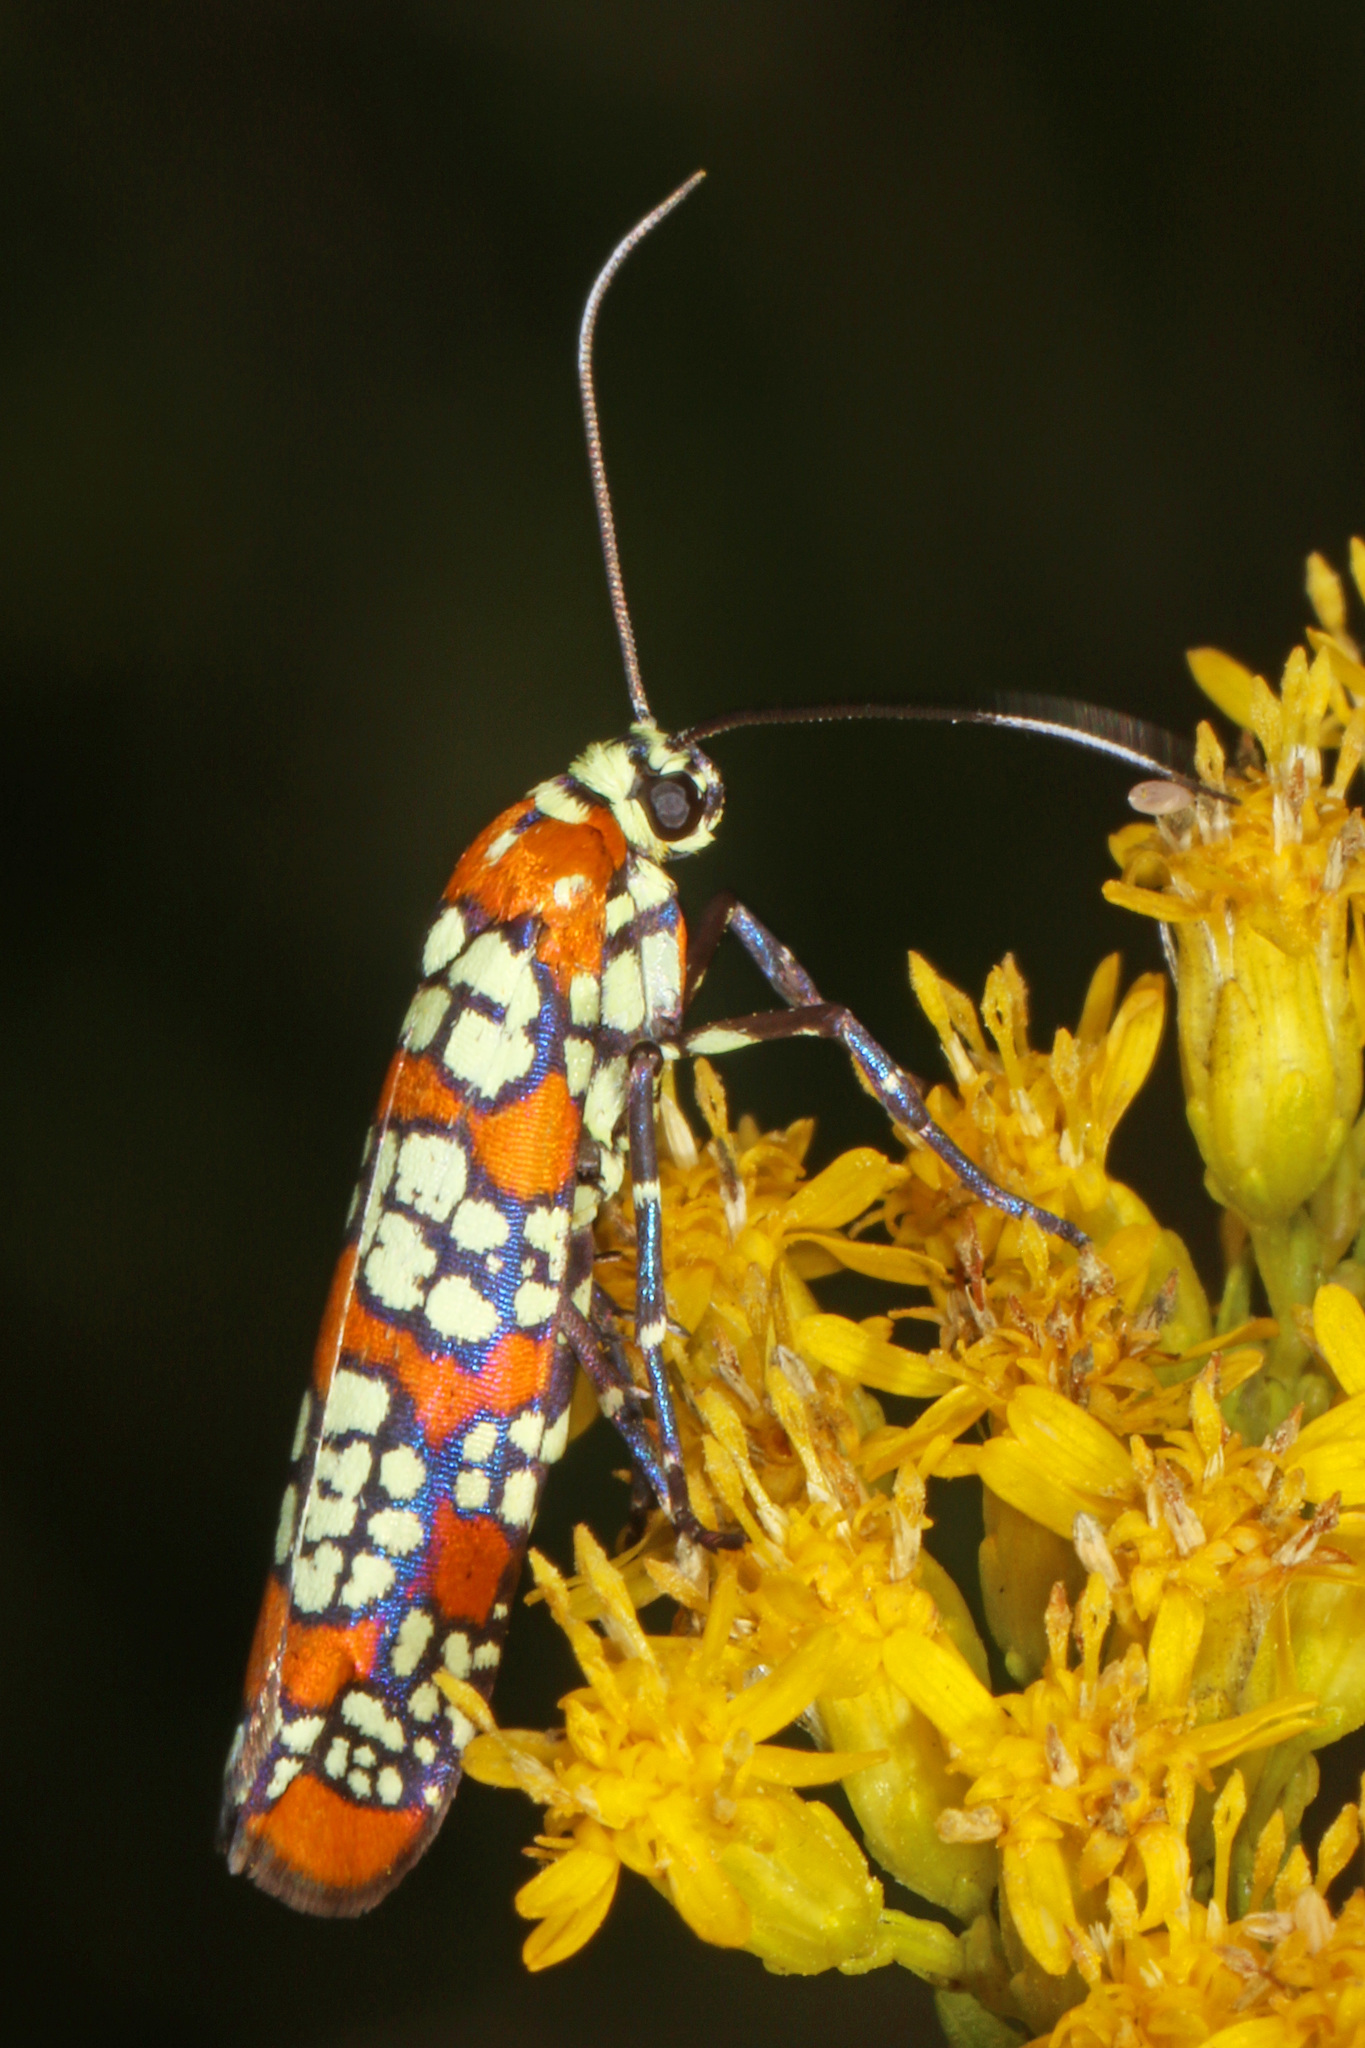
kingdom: Animalia
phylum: Arthropoda
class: Insecta
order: Lepidoptera
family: Attevidae
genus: Atteva
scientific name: Atteva punctella
